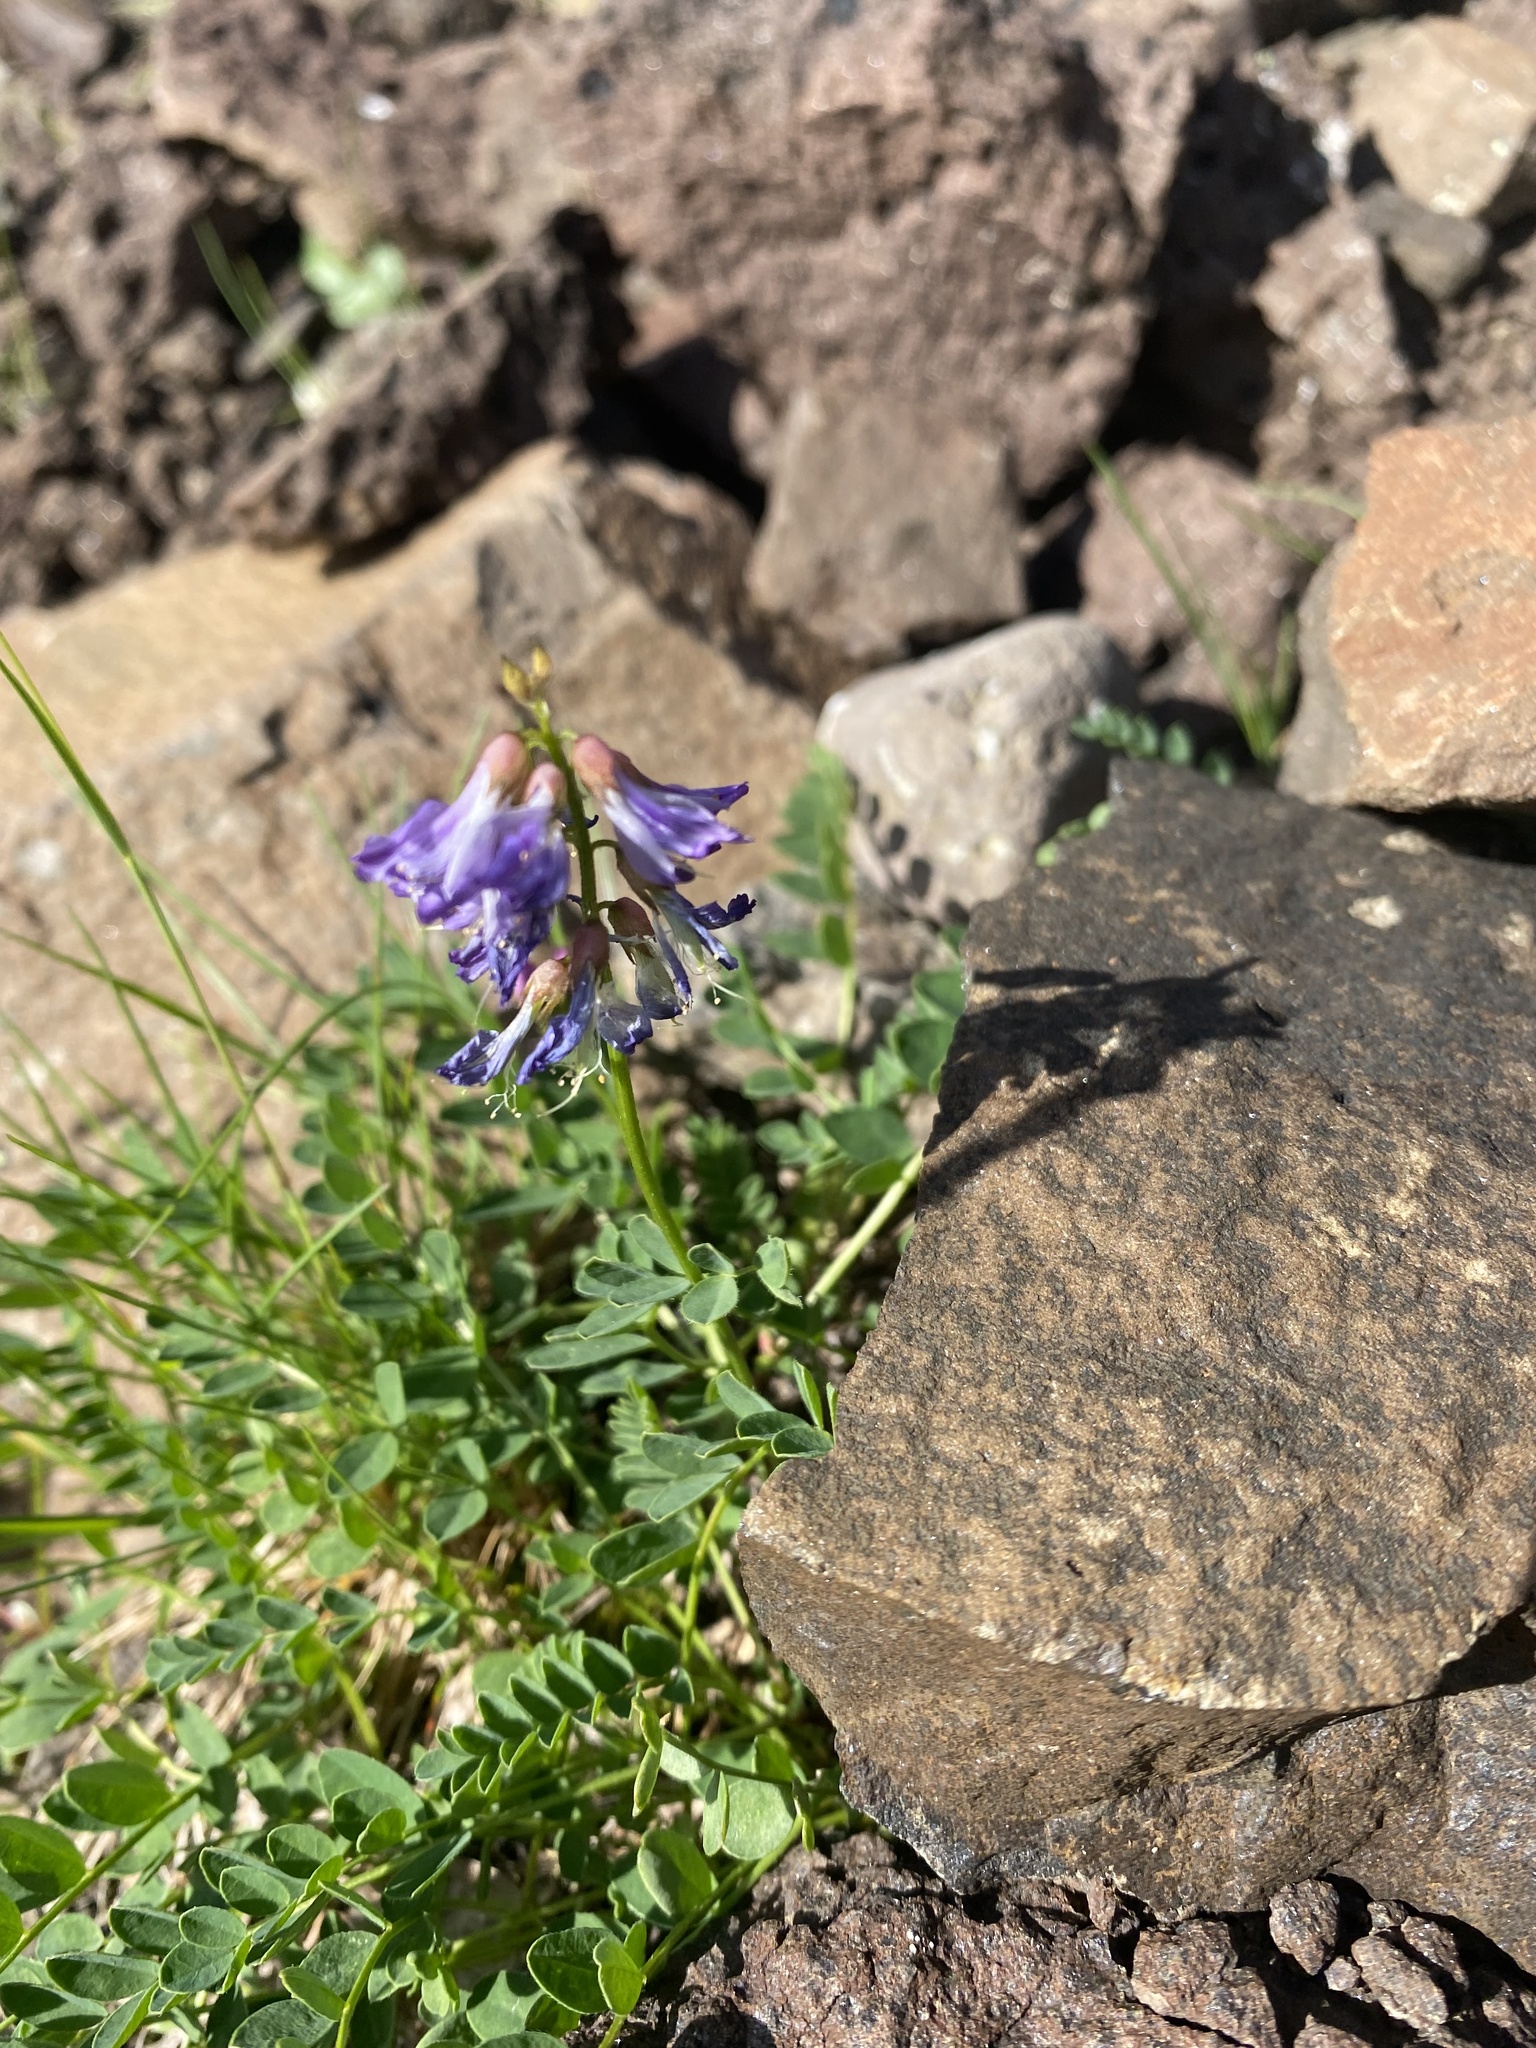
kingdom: Plantae
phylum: Tracheophyta
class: Magnoliopsida
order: Fabales
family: Fabaceae
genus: Astragalus
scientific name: Astragalus alpinus
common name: Alpine milk-vetch
